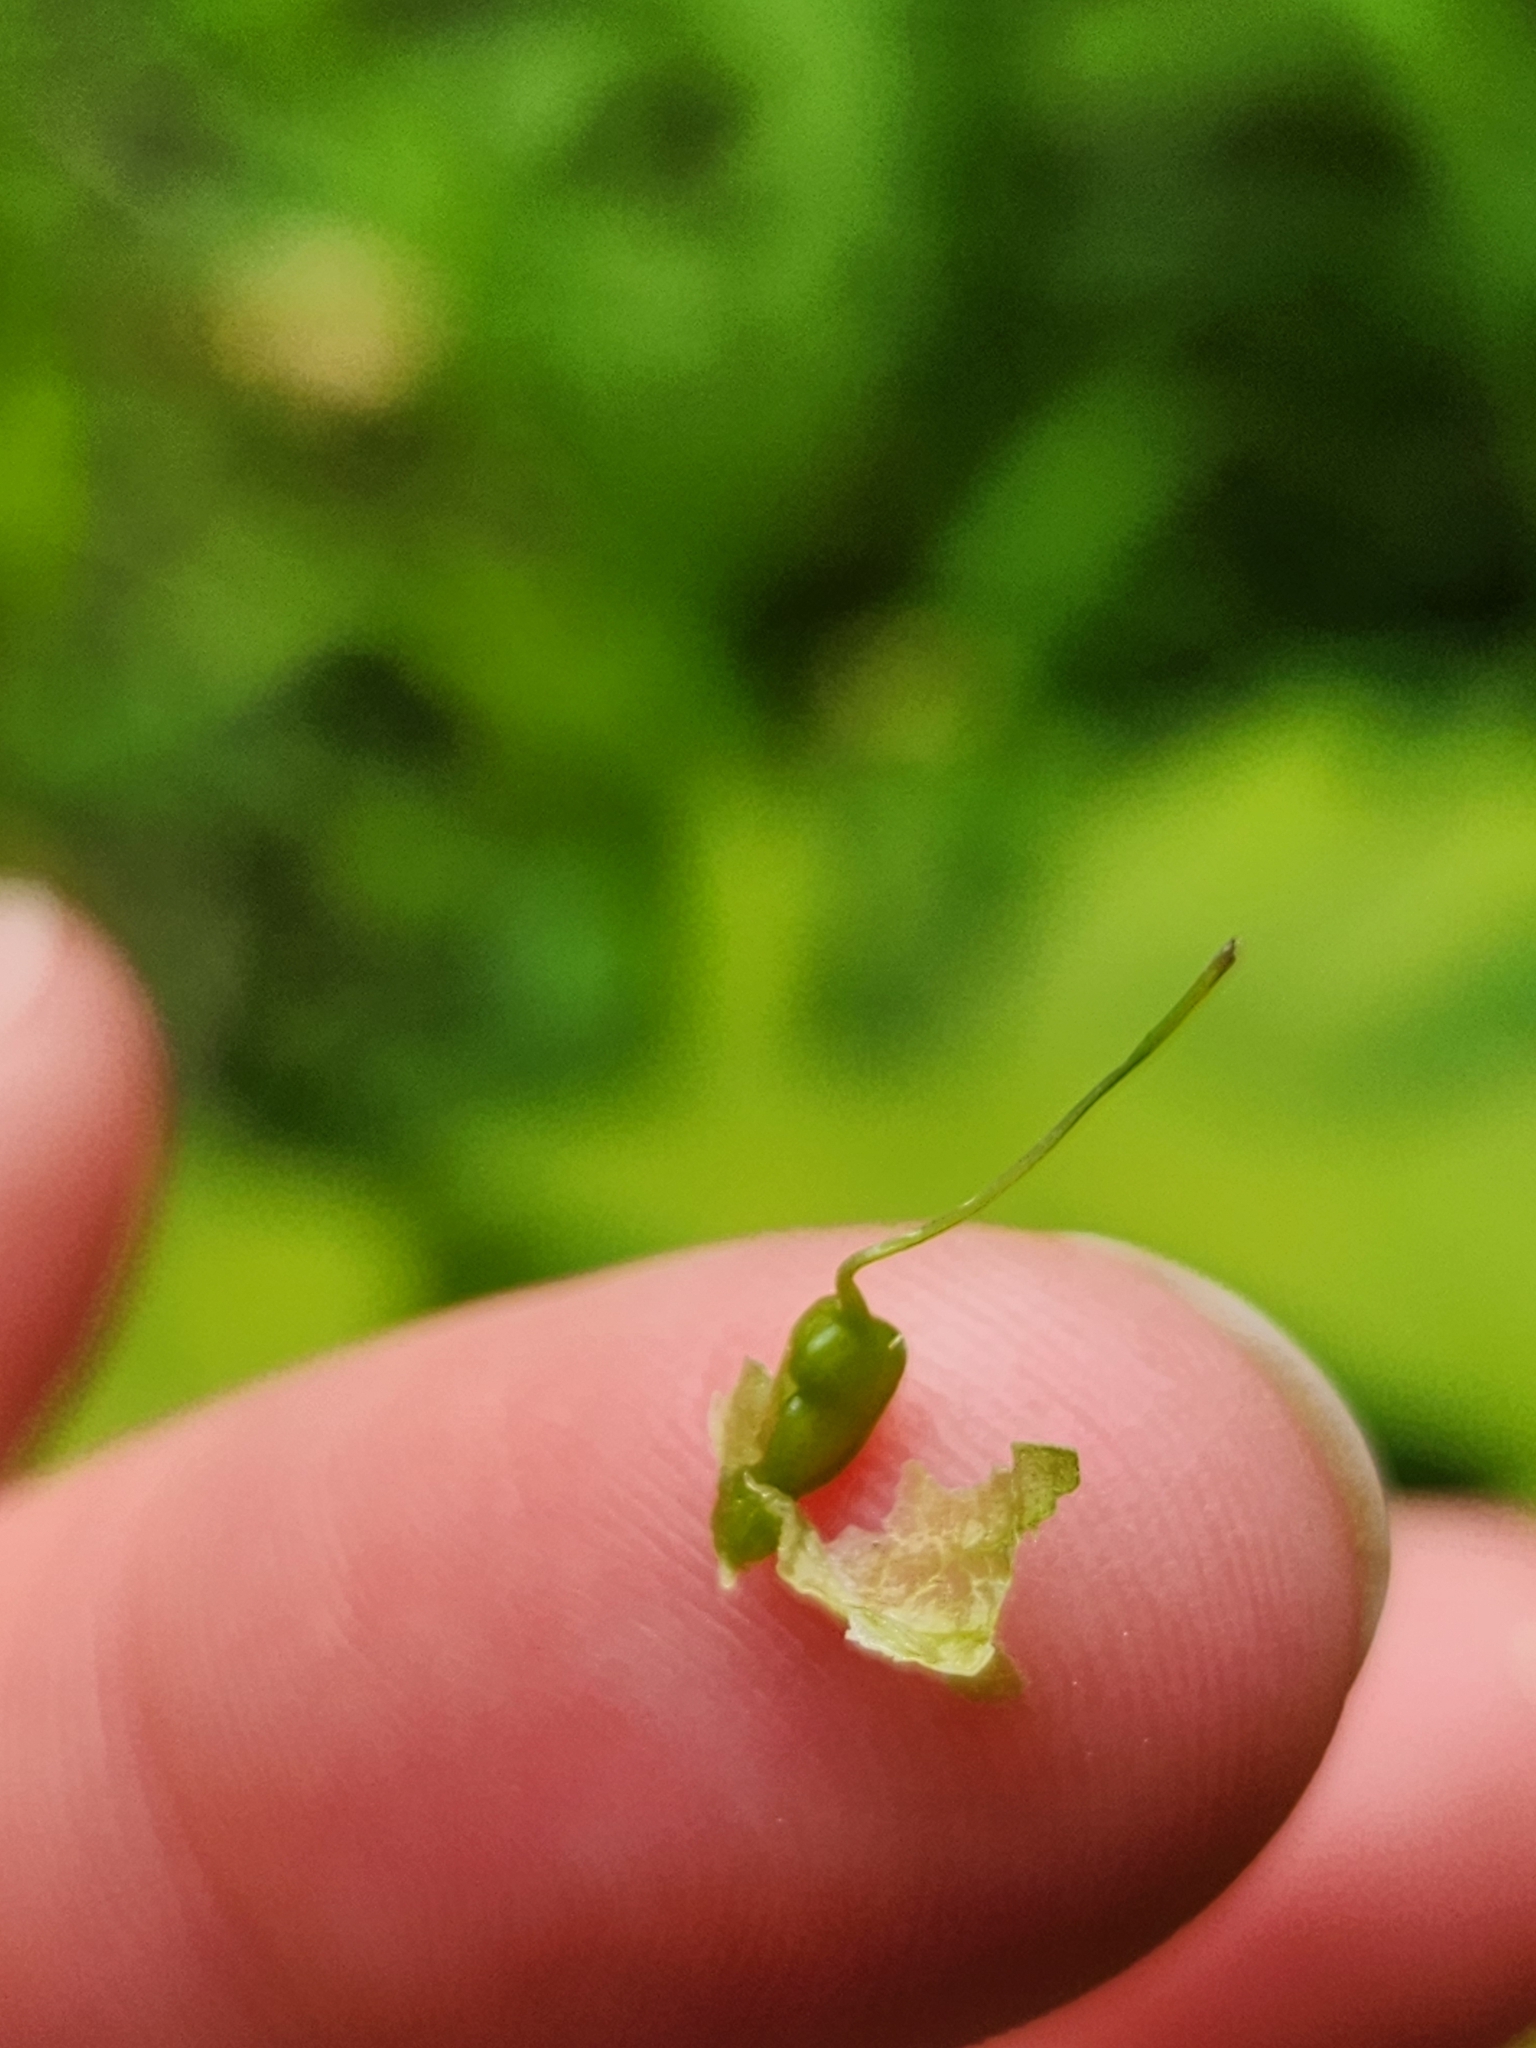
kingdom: Plantae
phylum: Tracheophyta
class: Liliopsida
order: Poales
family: Cyperaceae
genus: Carex
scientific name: Carex tuckermanii
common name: Tuckerman's sedge
